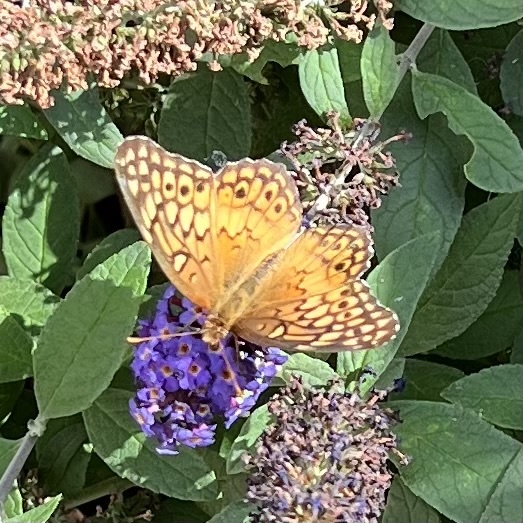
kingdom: Animalia
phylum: Arthropoda
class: Insecta
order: Lepidoptera
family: Nymphalidae
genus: Euptoieta
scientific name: Euptoieta claudia
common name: Variegated fritillary
